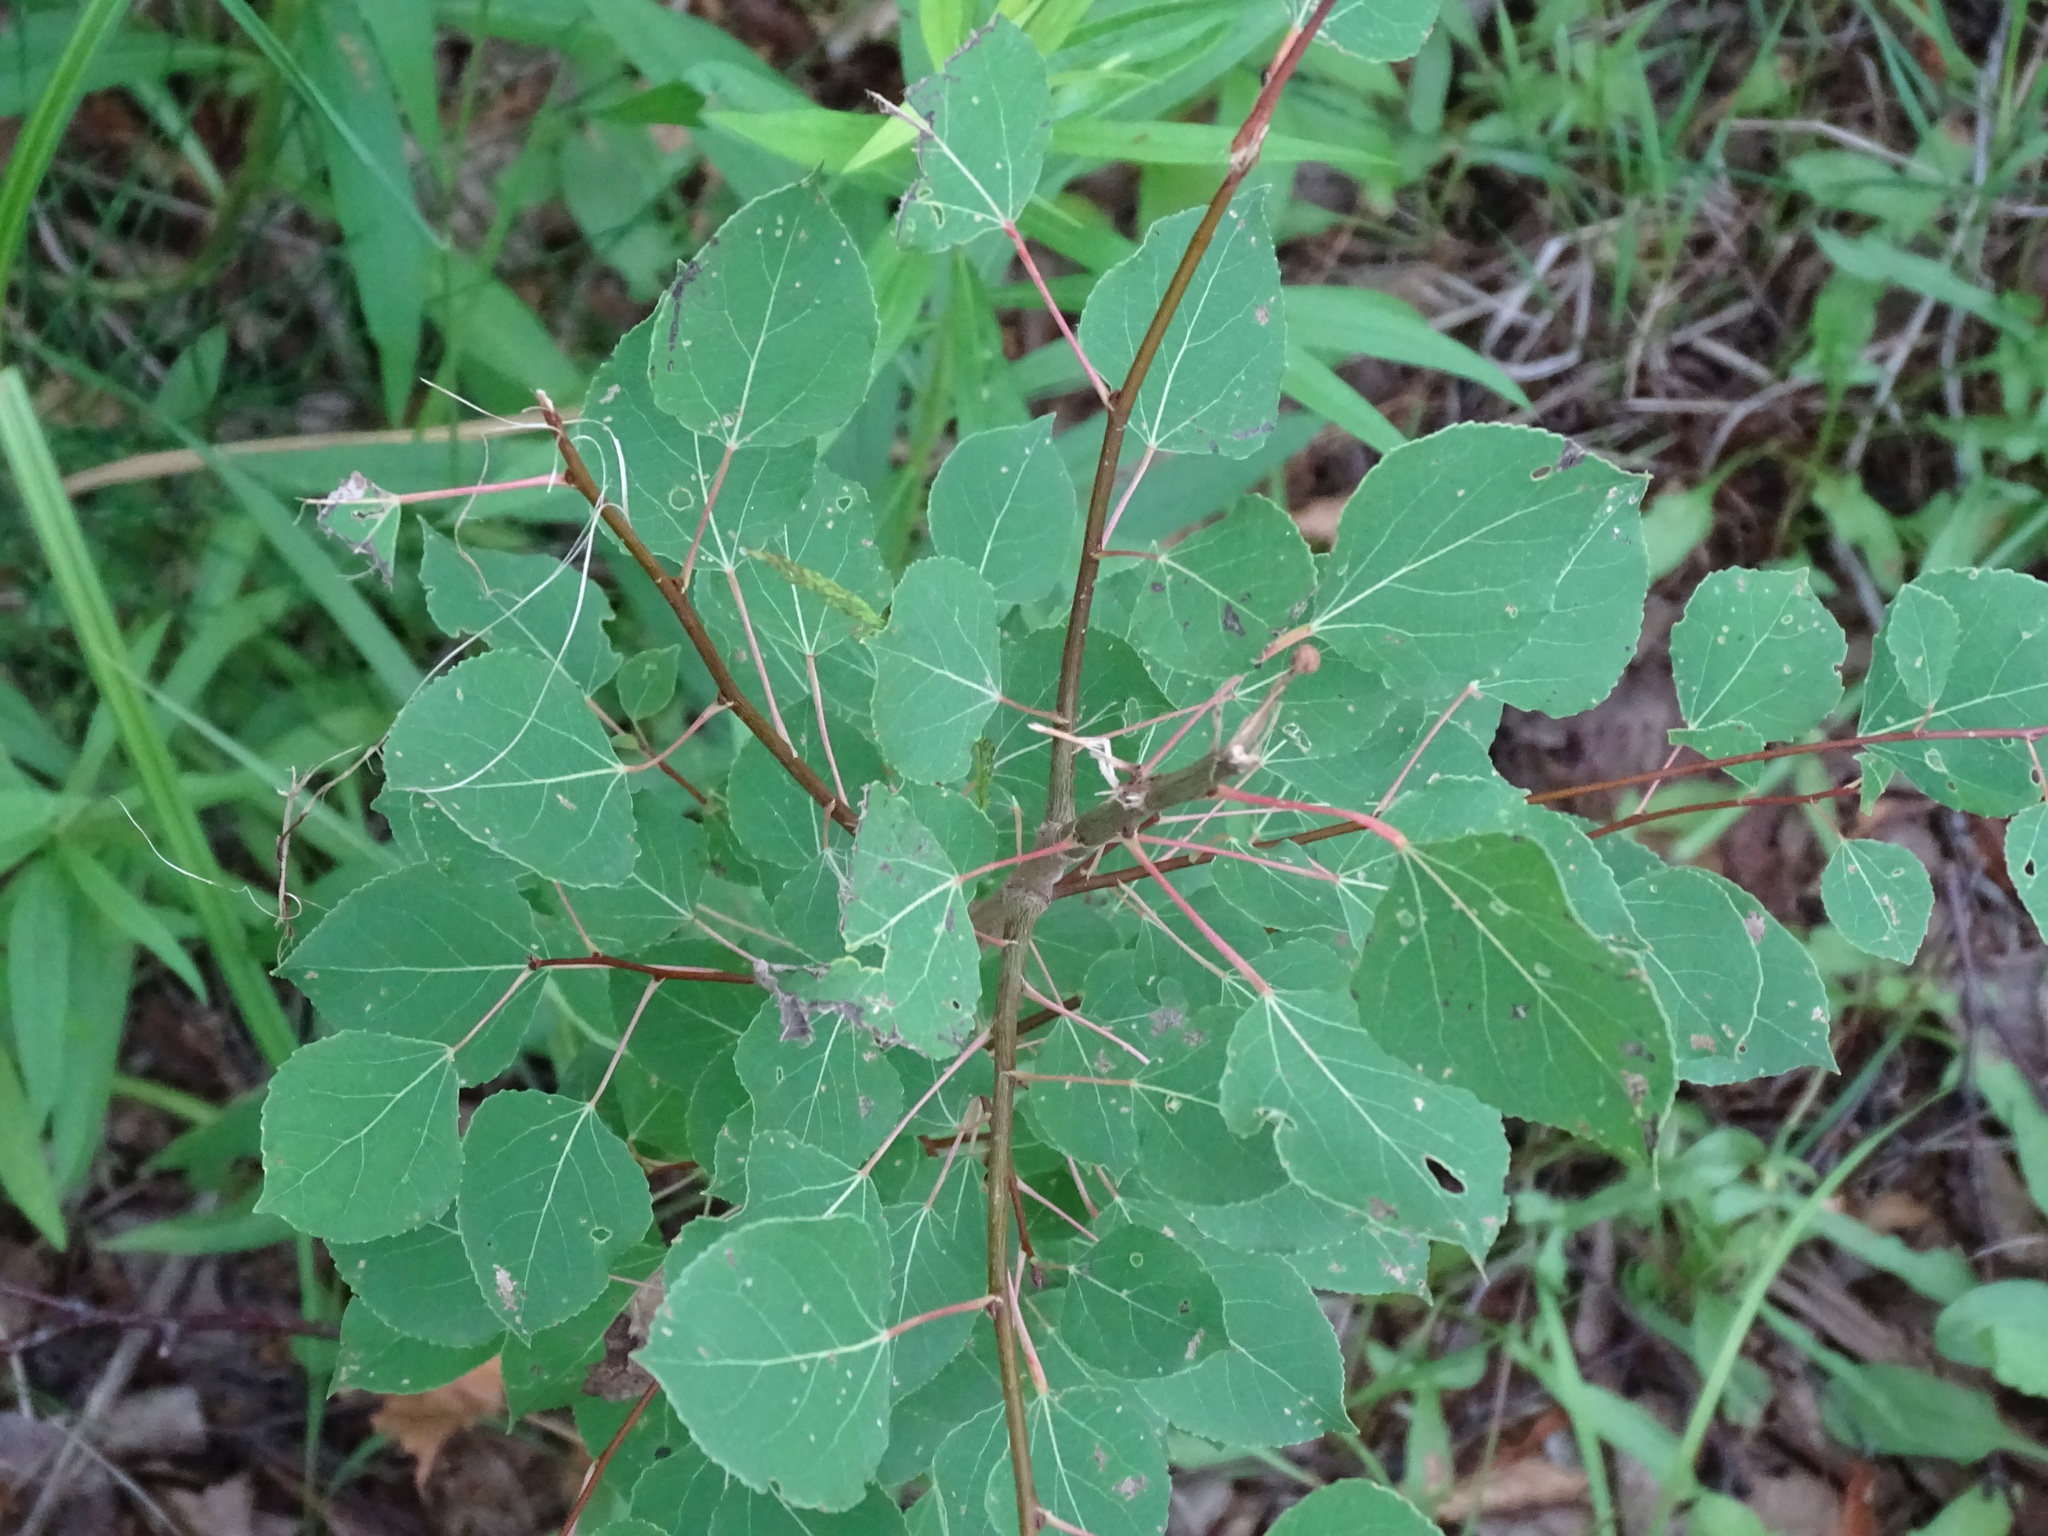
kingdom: Plantae
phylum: Tracheophyta
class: Magnoliopsida
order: Malpighiales
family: Salicaceae
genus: Populus
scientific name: Populus tremuloides
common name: Quaking aspen
